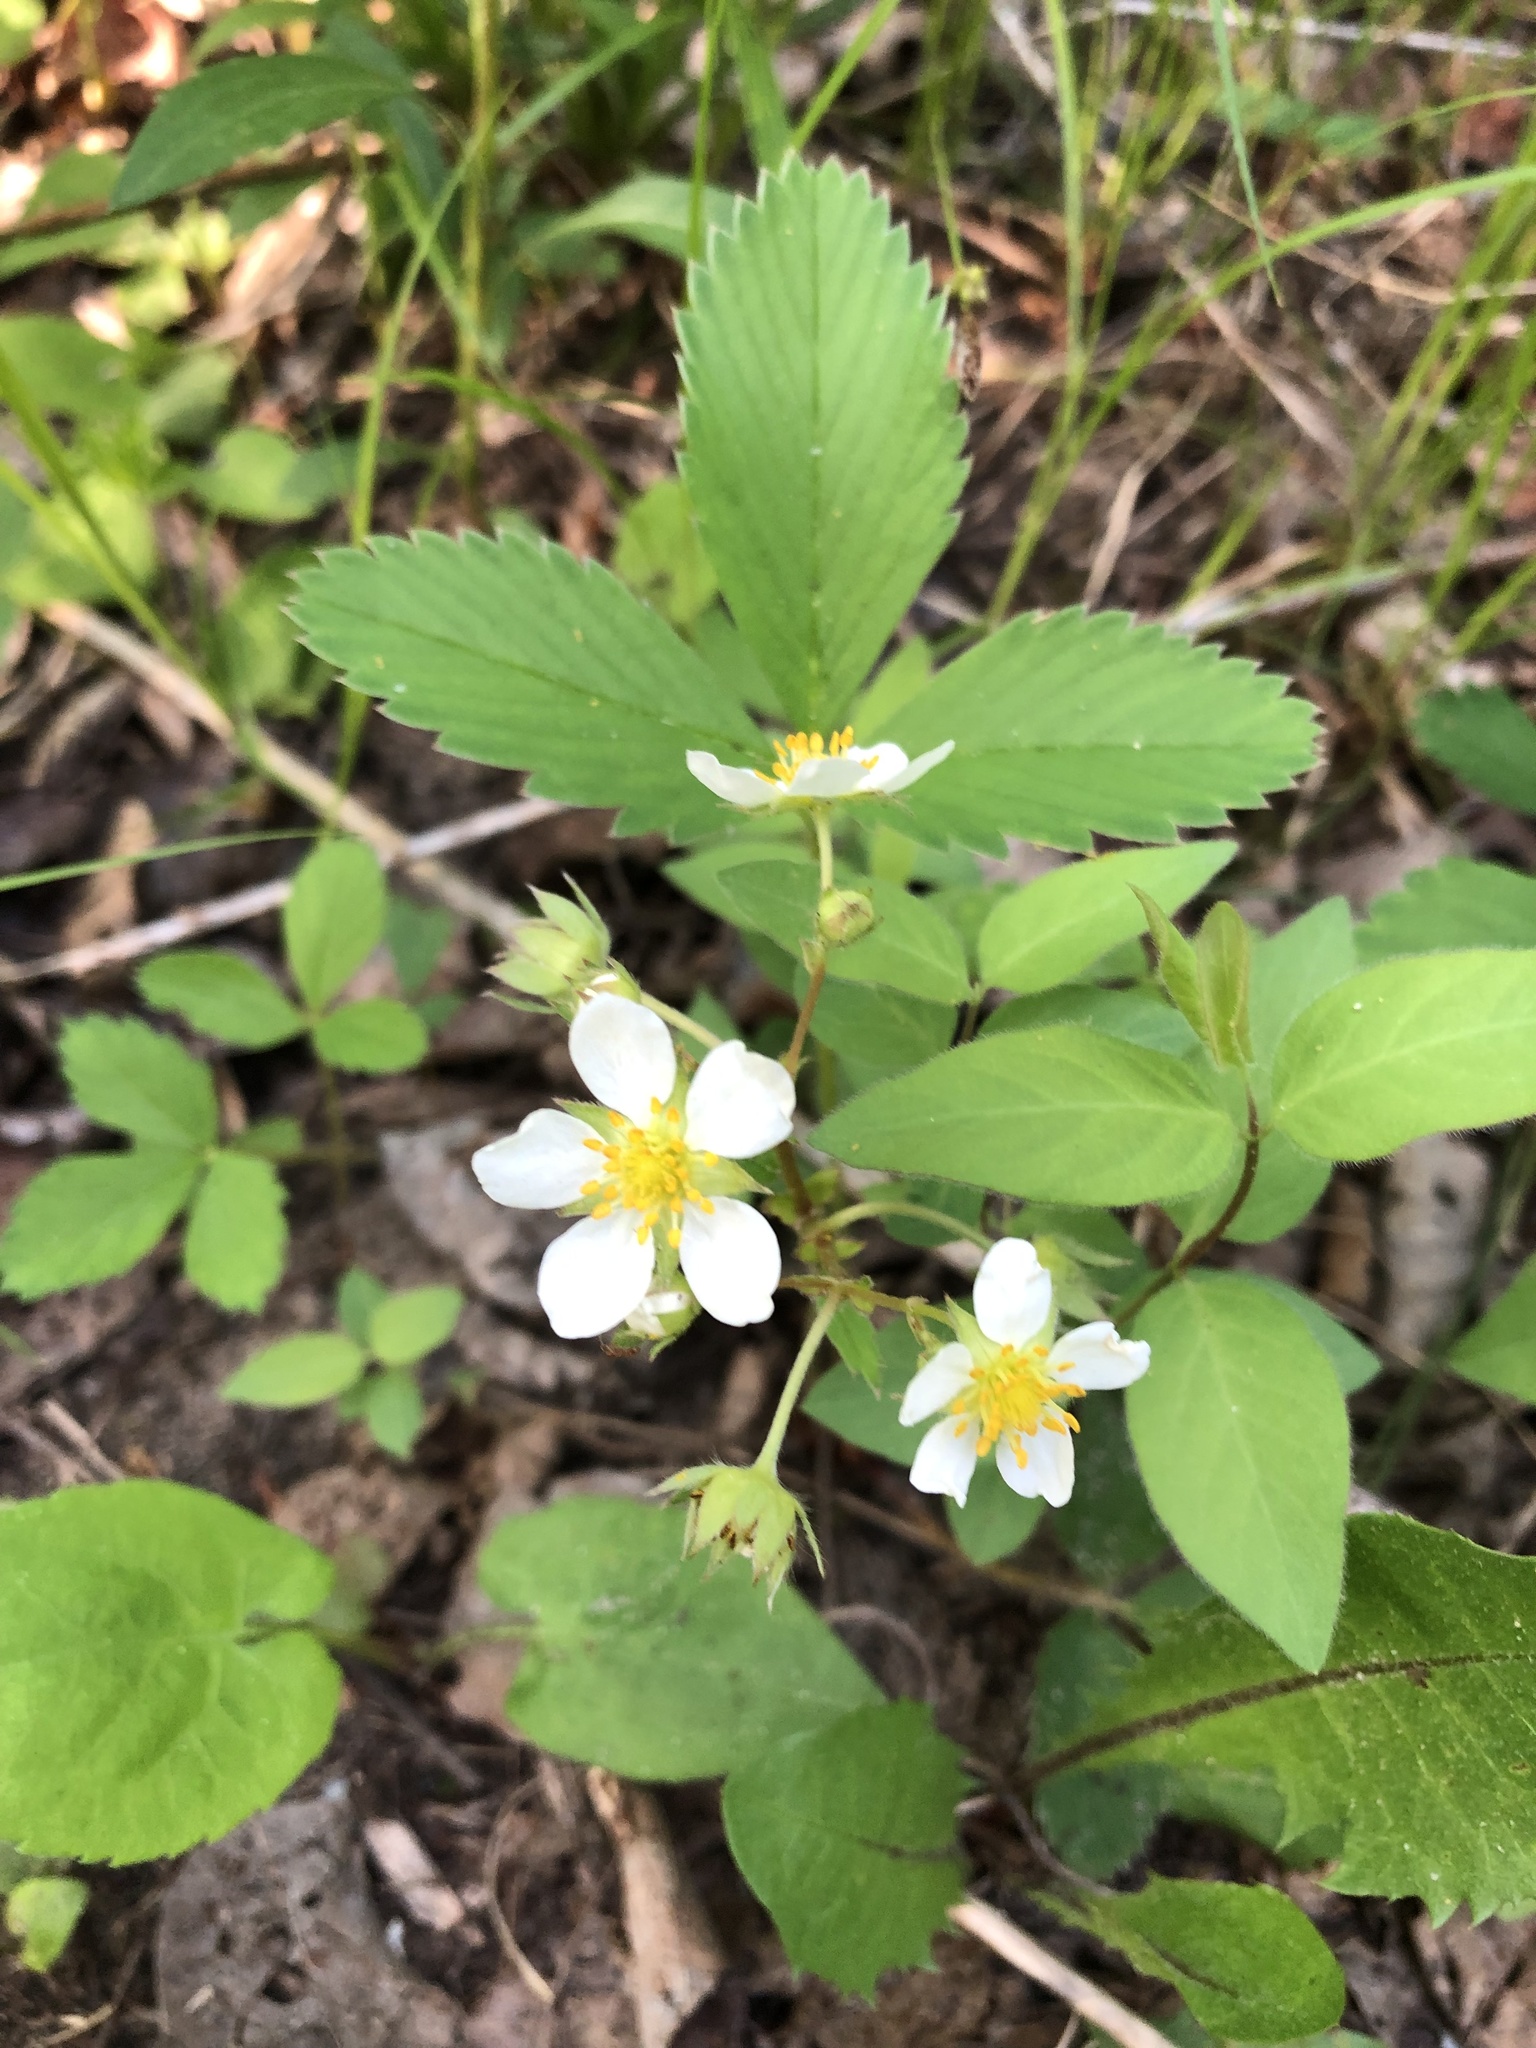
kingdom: Plantae
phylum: Tracheophyta
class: Magnoliopsida
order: Rosales
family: Rosaceae
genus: Fragaria
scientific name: Fragaria virginiana
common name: Thickleaved wild strawberry
